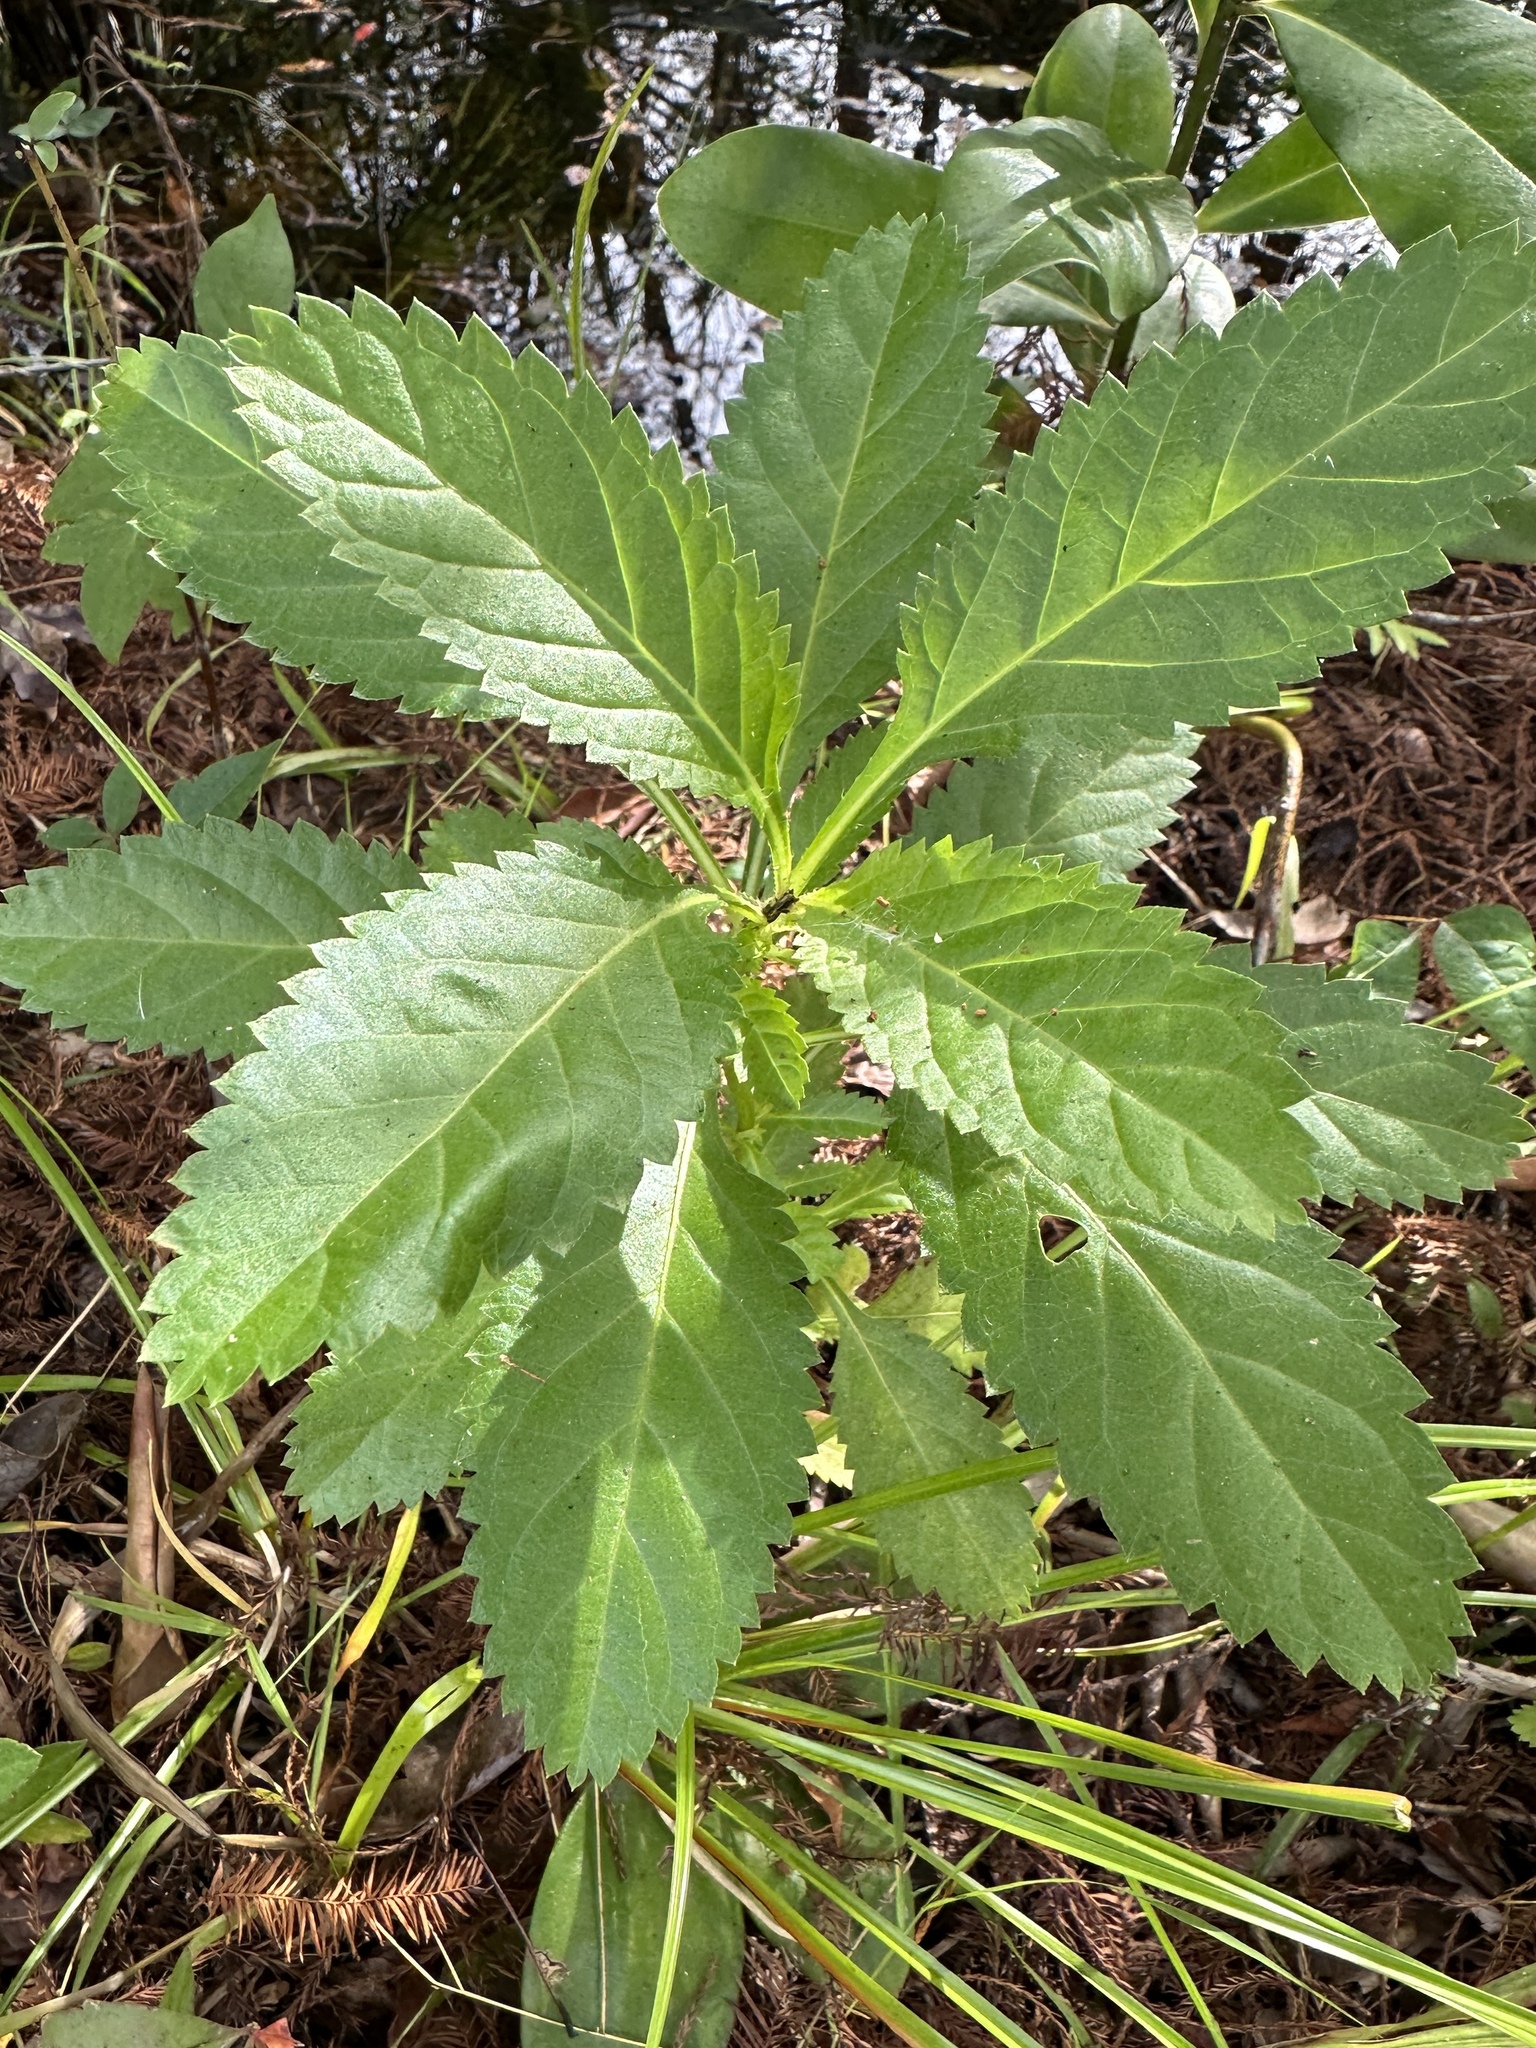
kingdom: Plantae
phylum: Tracheophyta
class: Magnoliopsida
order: Lamiales
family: Verbenaceae
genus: Stachytarpheta
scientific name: Stachytarpheta jamaicensis
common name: Light-blue snakeweed
